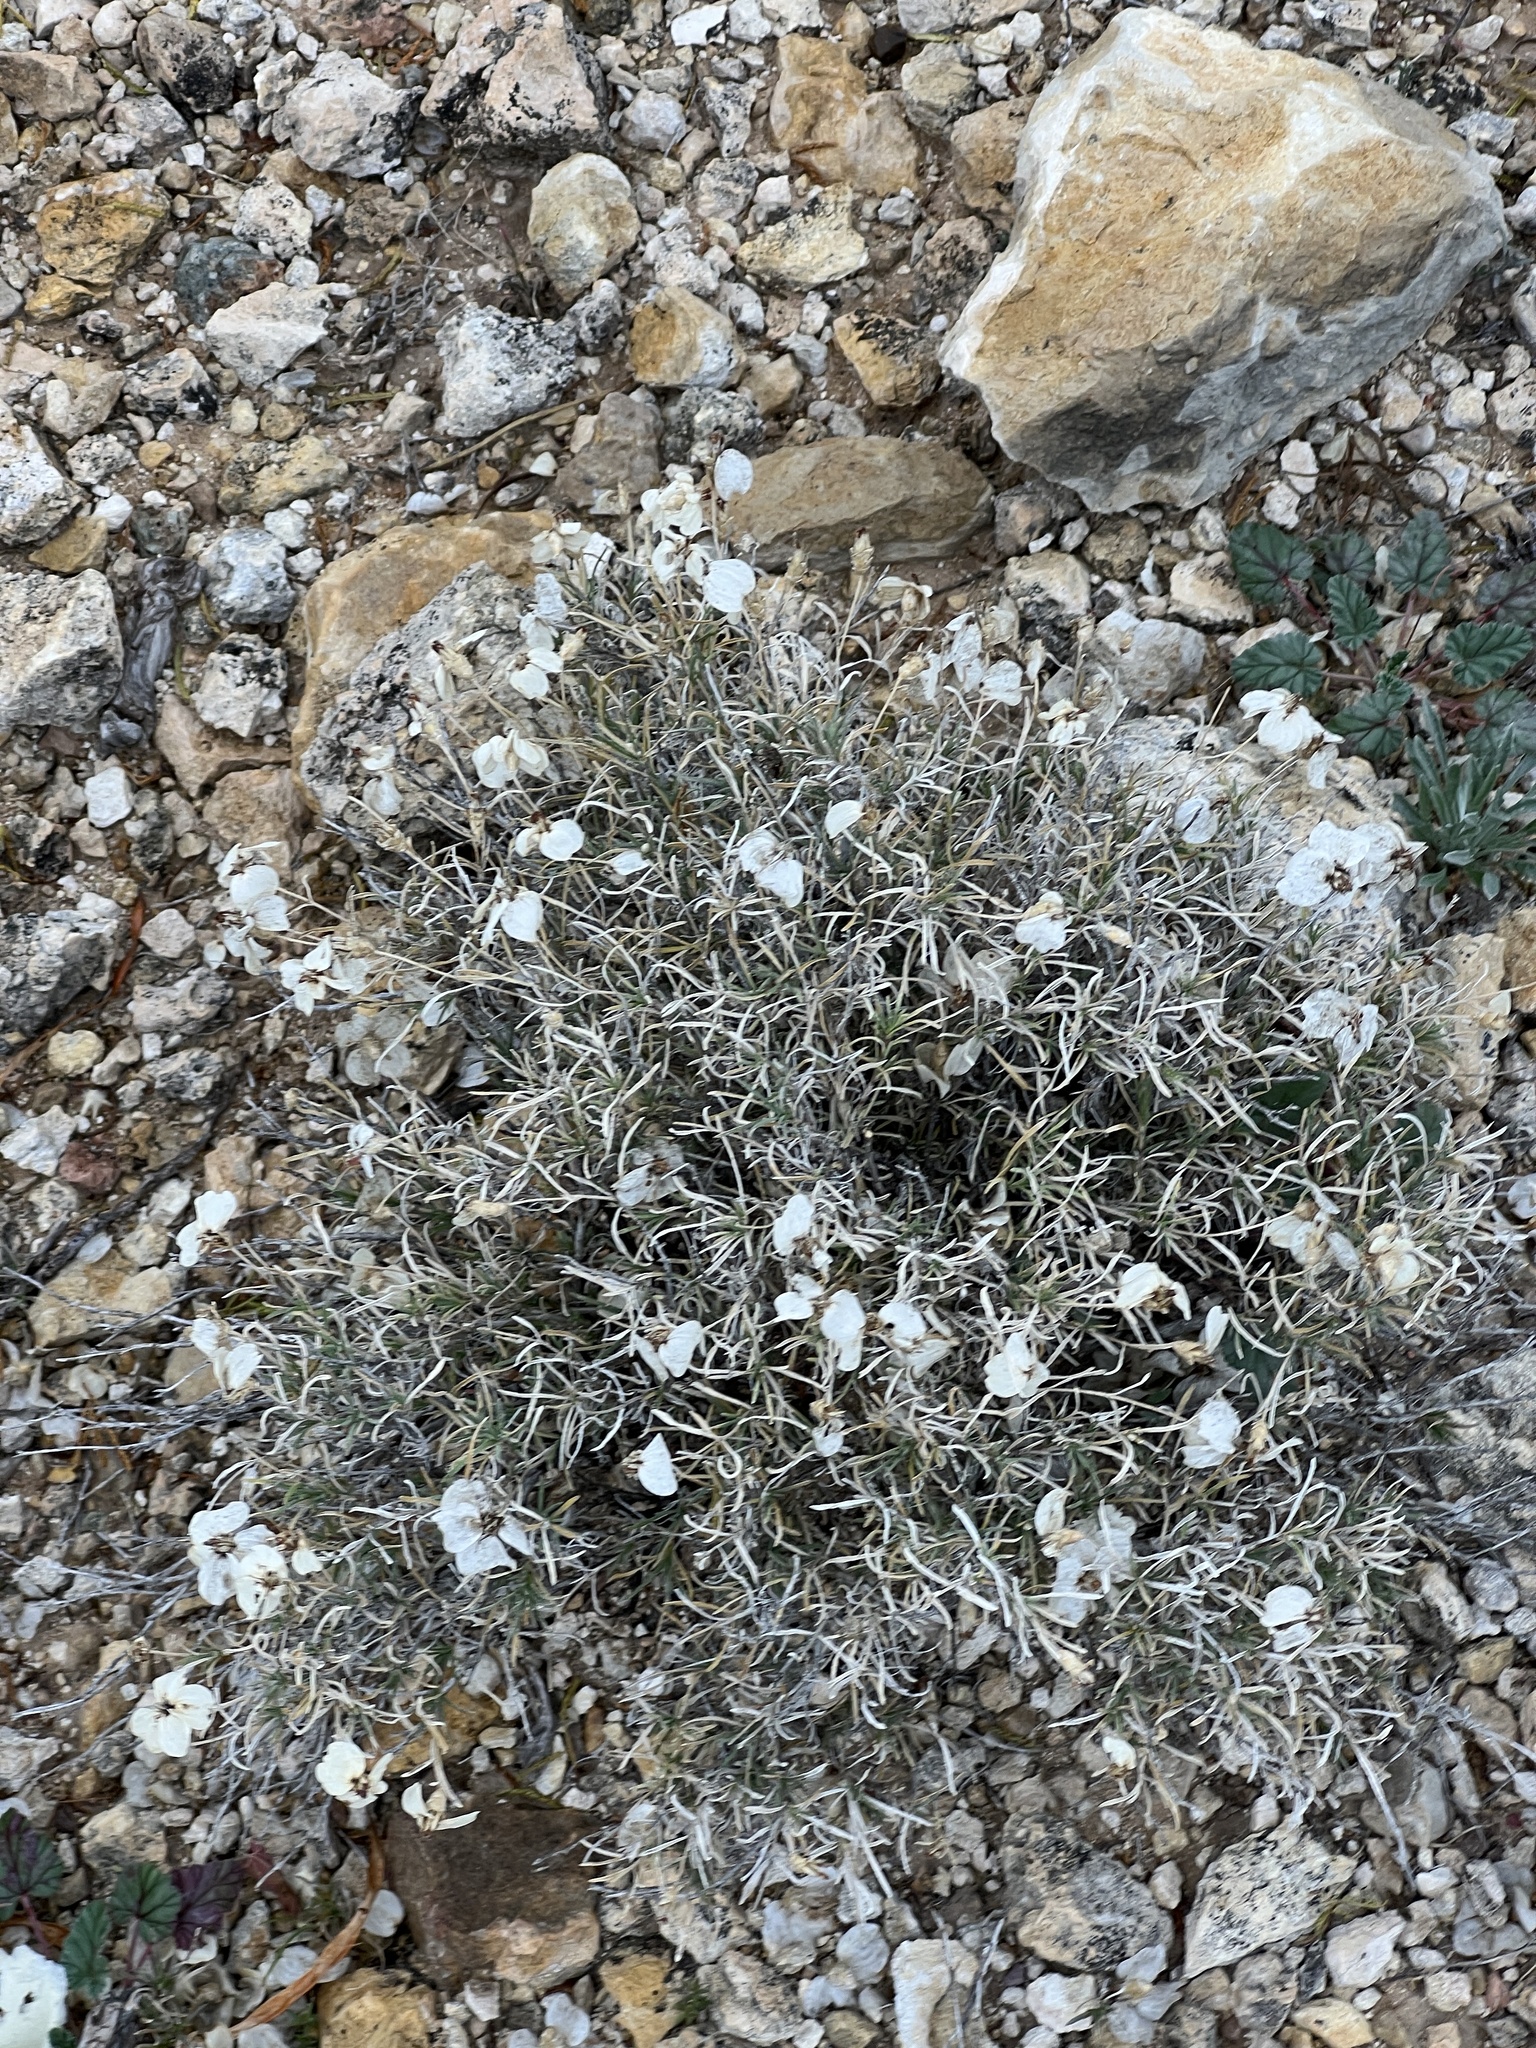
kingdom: Plantae
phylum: Tracheophyta
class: Magnoliopsida
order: Asterales
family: Asteraceae
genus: Zinnia
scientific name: Zinnia acerosa
